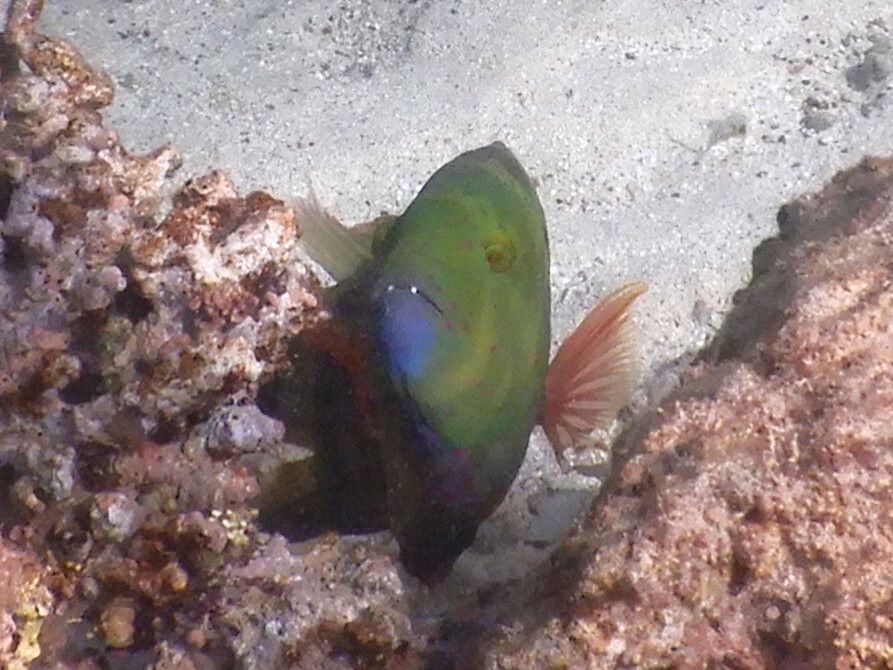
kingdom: Animalia
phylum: Chordata
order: Perciformes
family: Labridae
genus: Cheilinus
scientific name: Cheilinus lunulatus
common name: Broomtail wrasse
